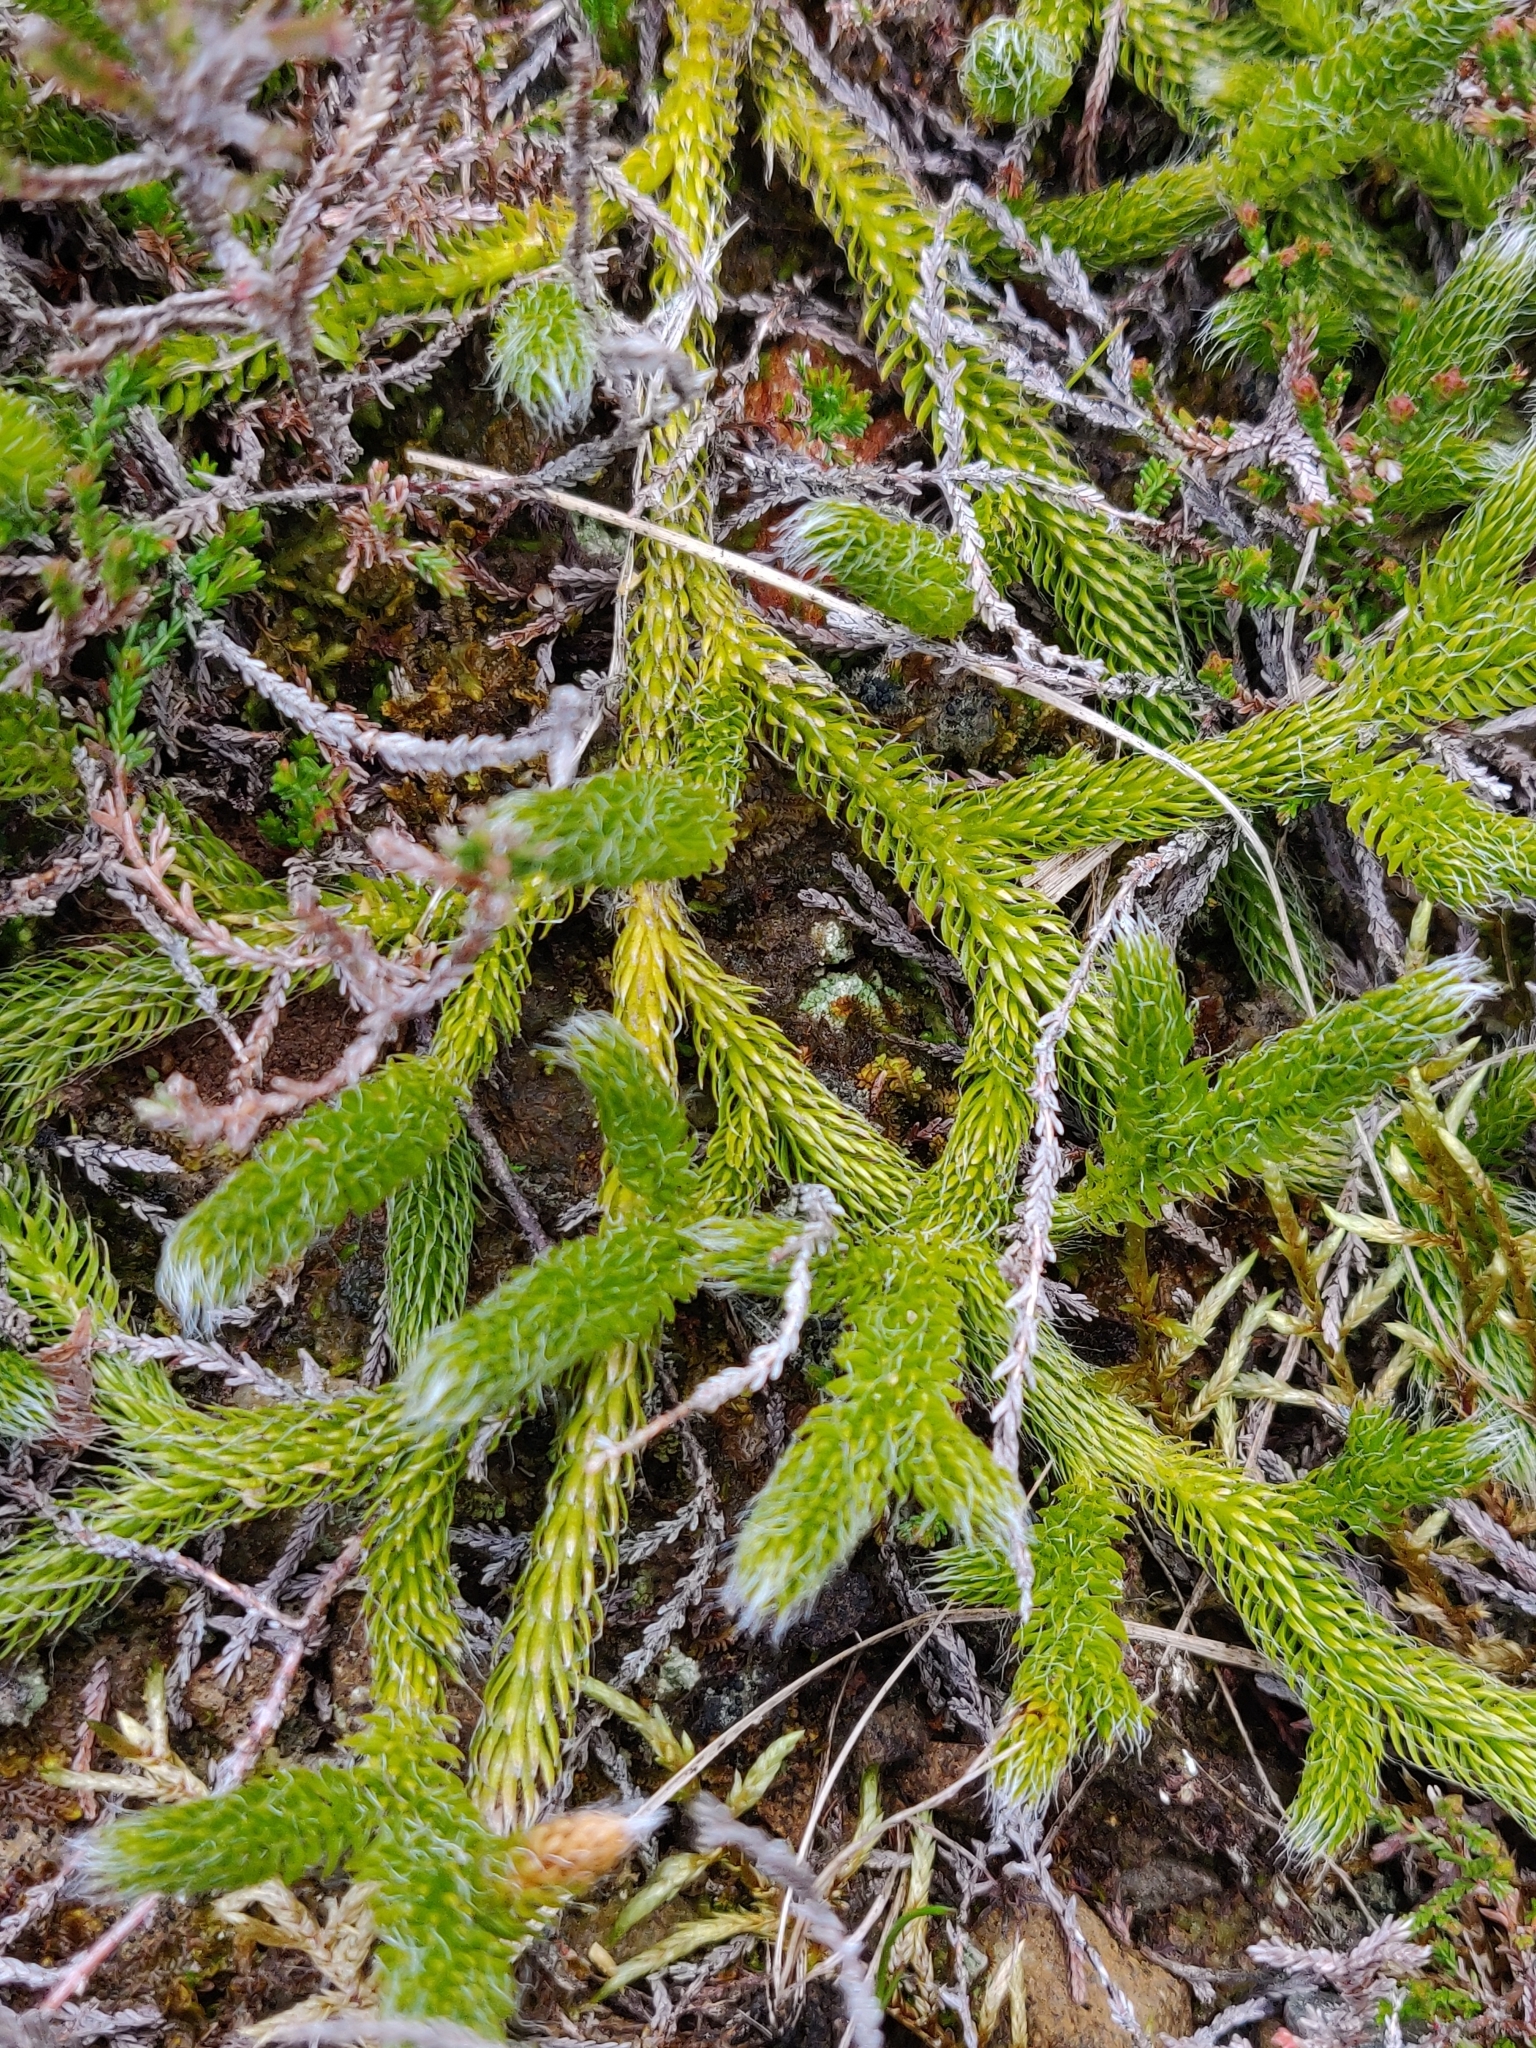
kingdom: Plantae
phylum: Tracheophyta
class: Lycopodiopsida
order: Lycopodiales
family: Lycopodiaceae
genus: Lycopodium
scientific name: Lycopodium clavatum
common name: Stag's-horn clubmoss
